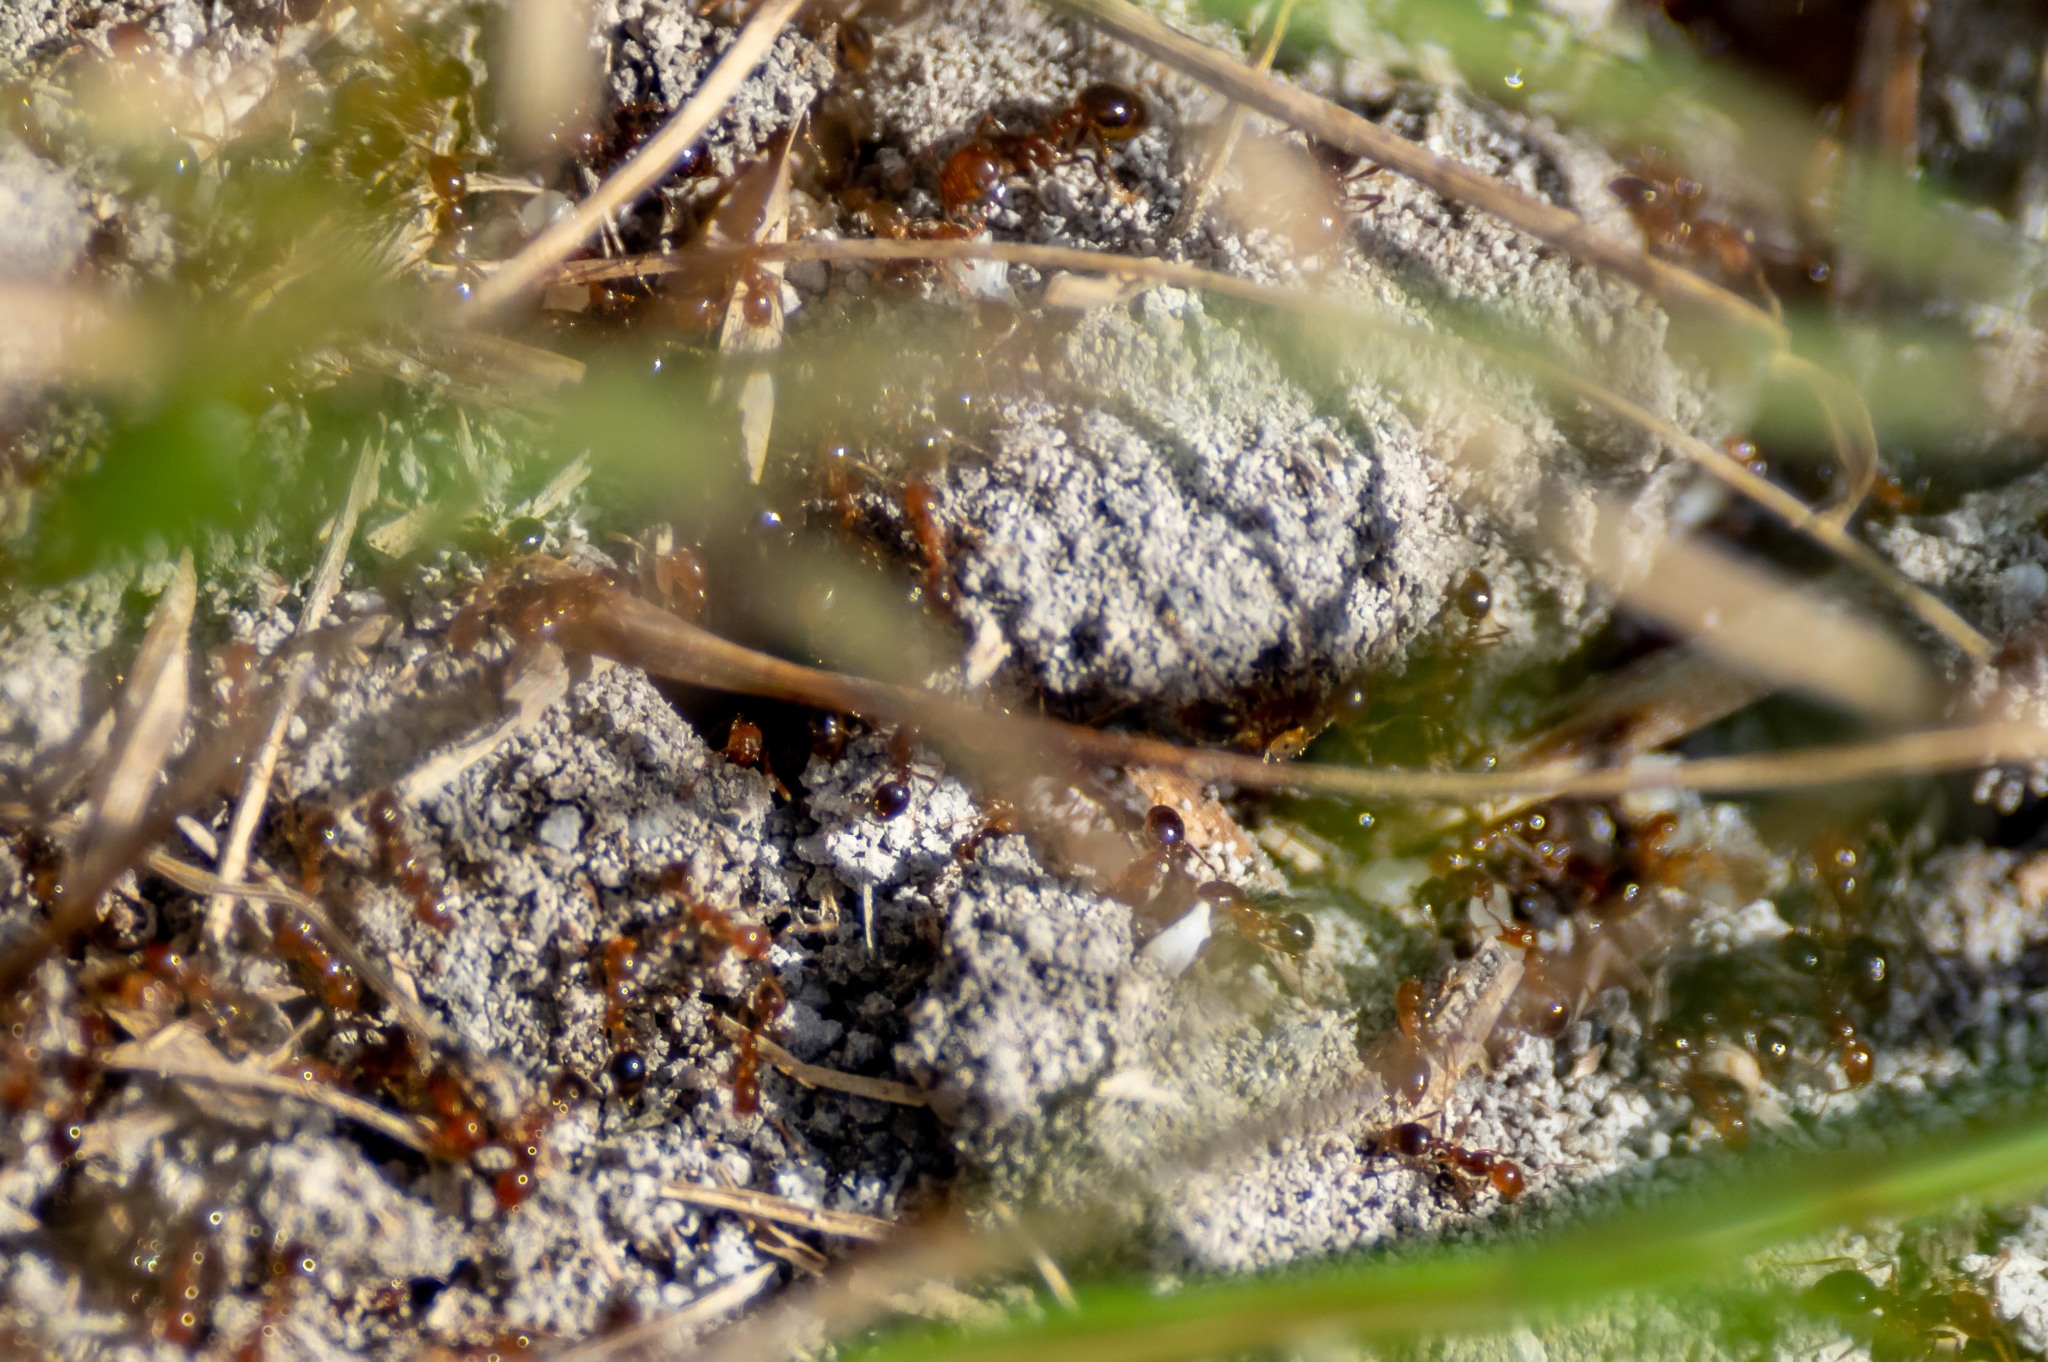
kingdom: Animalia
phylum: Arthropoda
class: Insecta
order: Hymenoptera
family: Formicidae
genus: Solenopsis
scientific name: Solenopsis invicta
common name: Red imported fire ant
